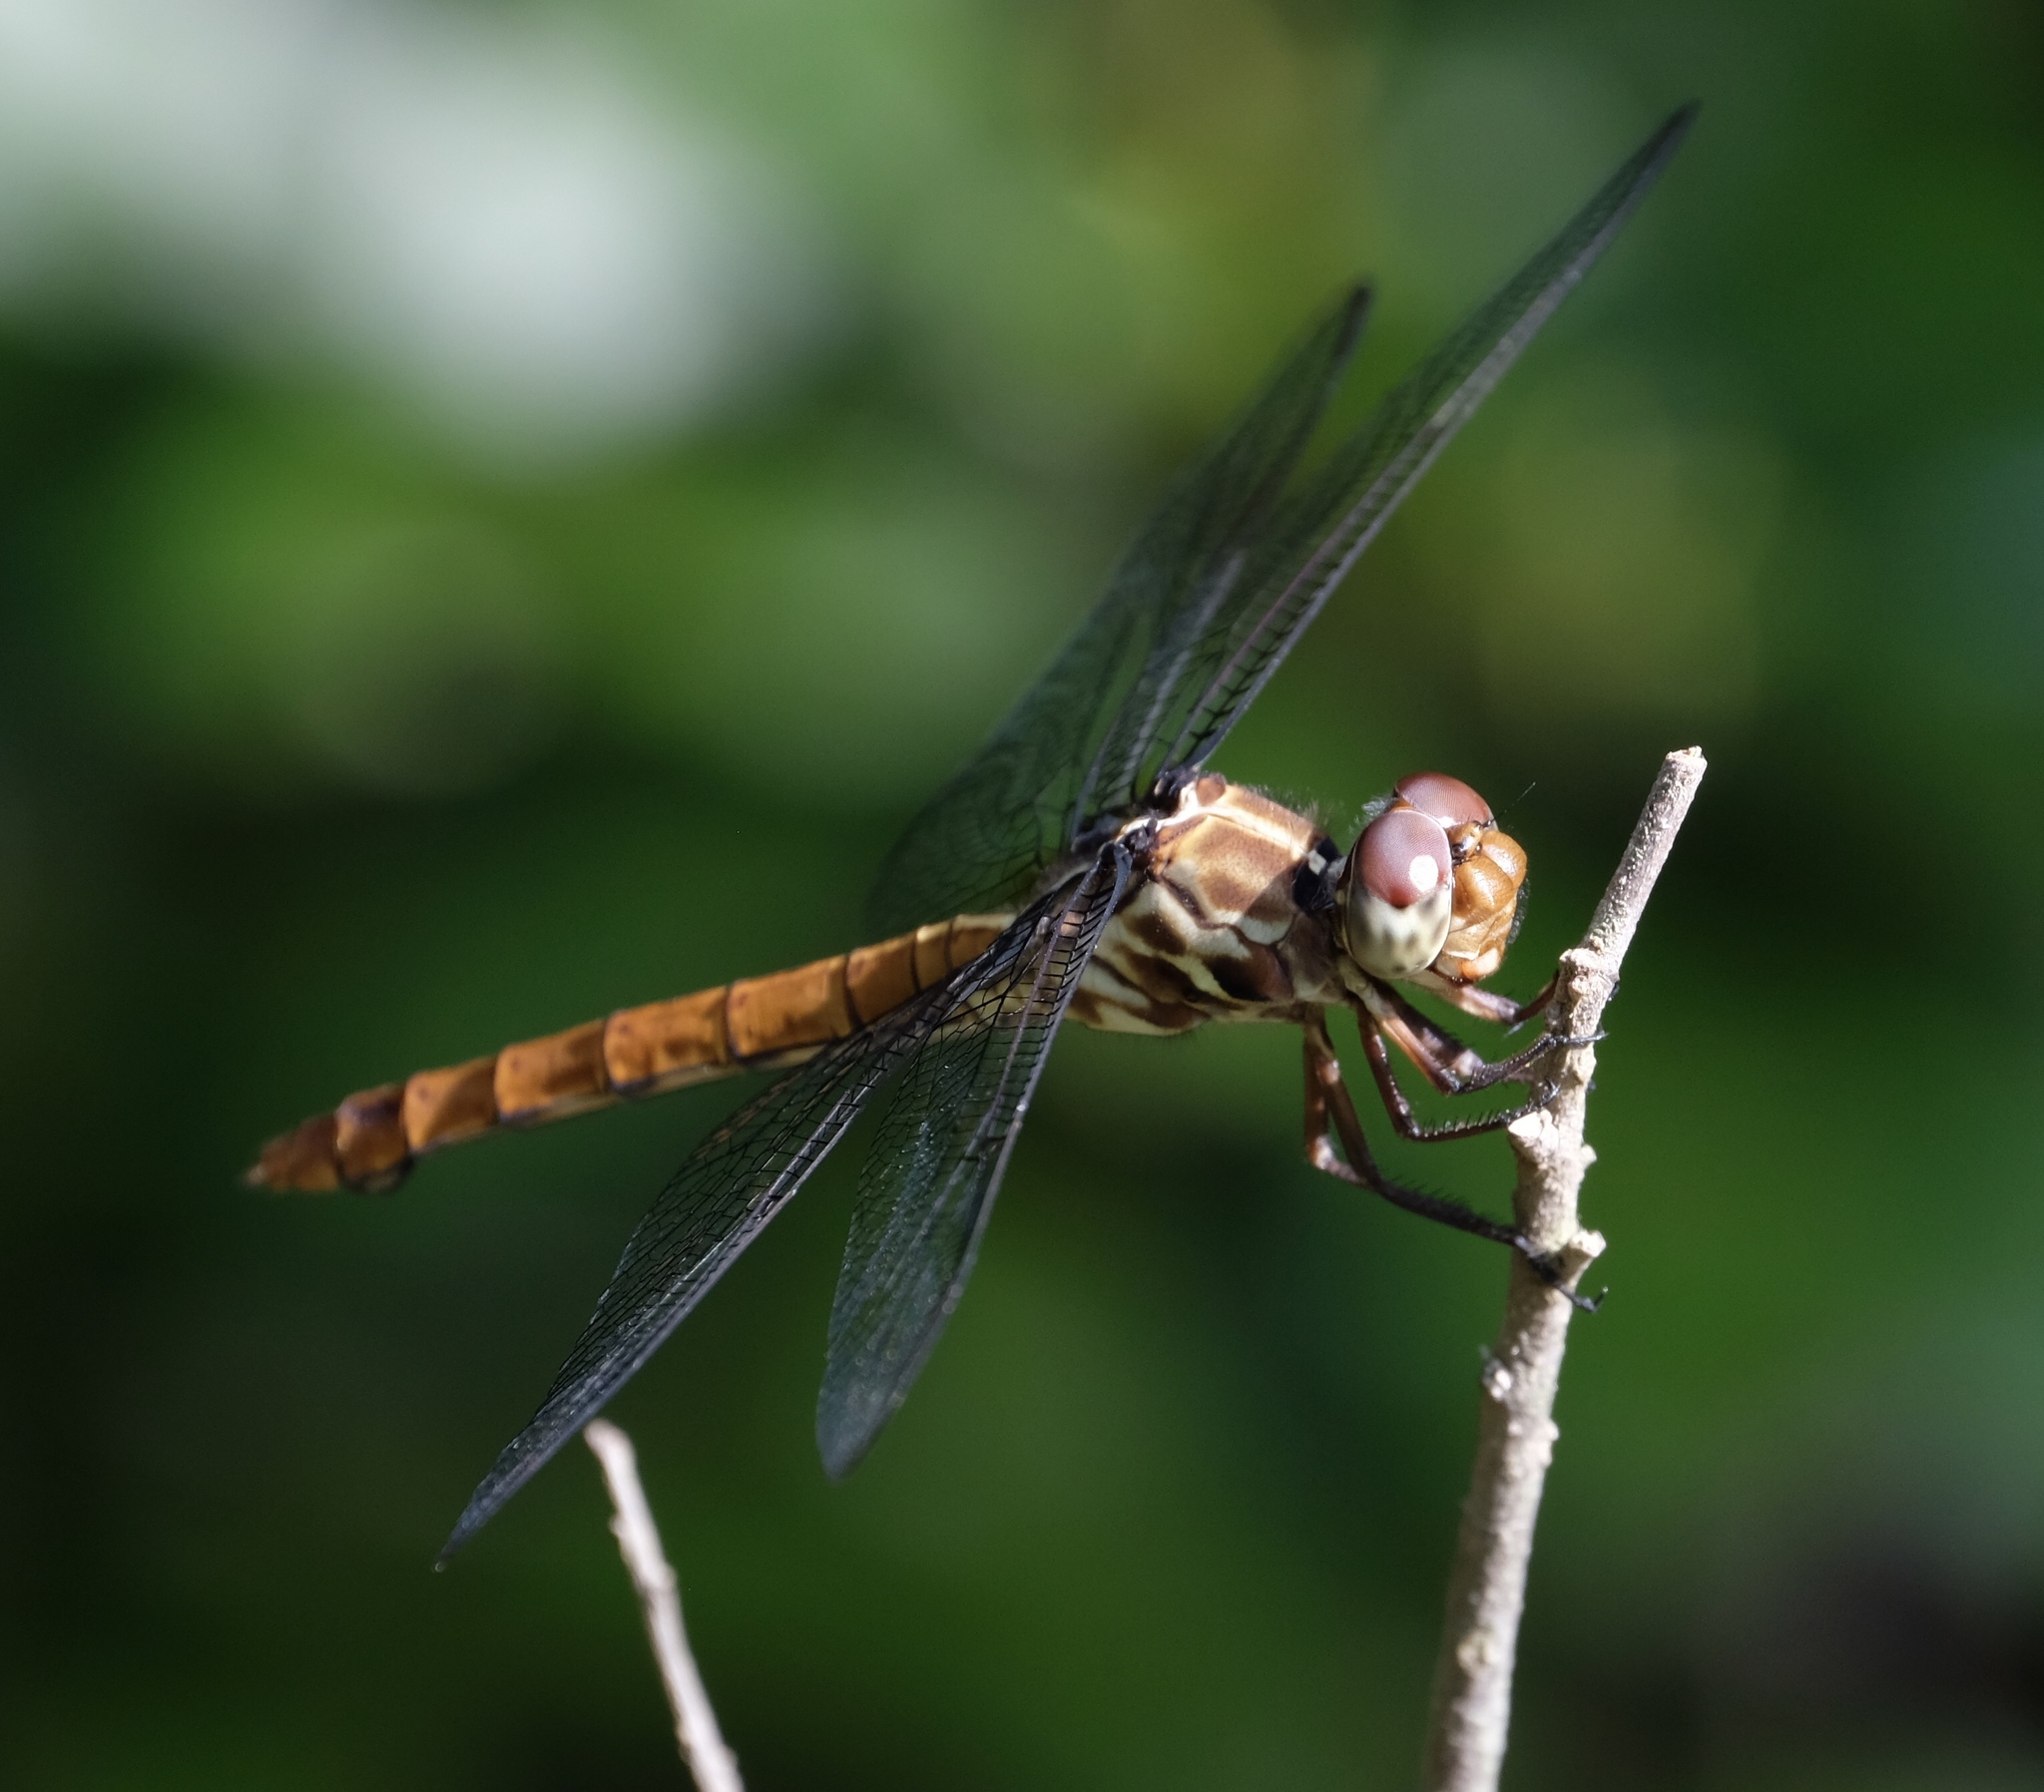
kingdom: Animalia
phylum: Arthropoda
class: Insecta
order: Odonata
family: Libellulidae
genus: Orthemis
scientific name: Orthemis ferruginea
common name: Roseate skimmer
